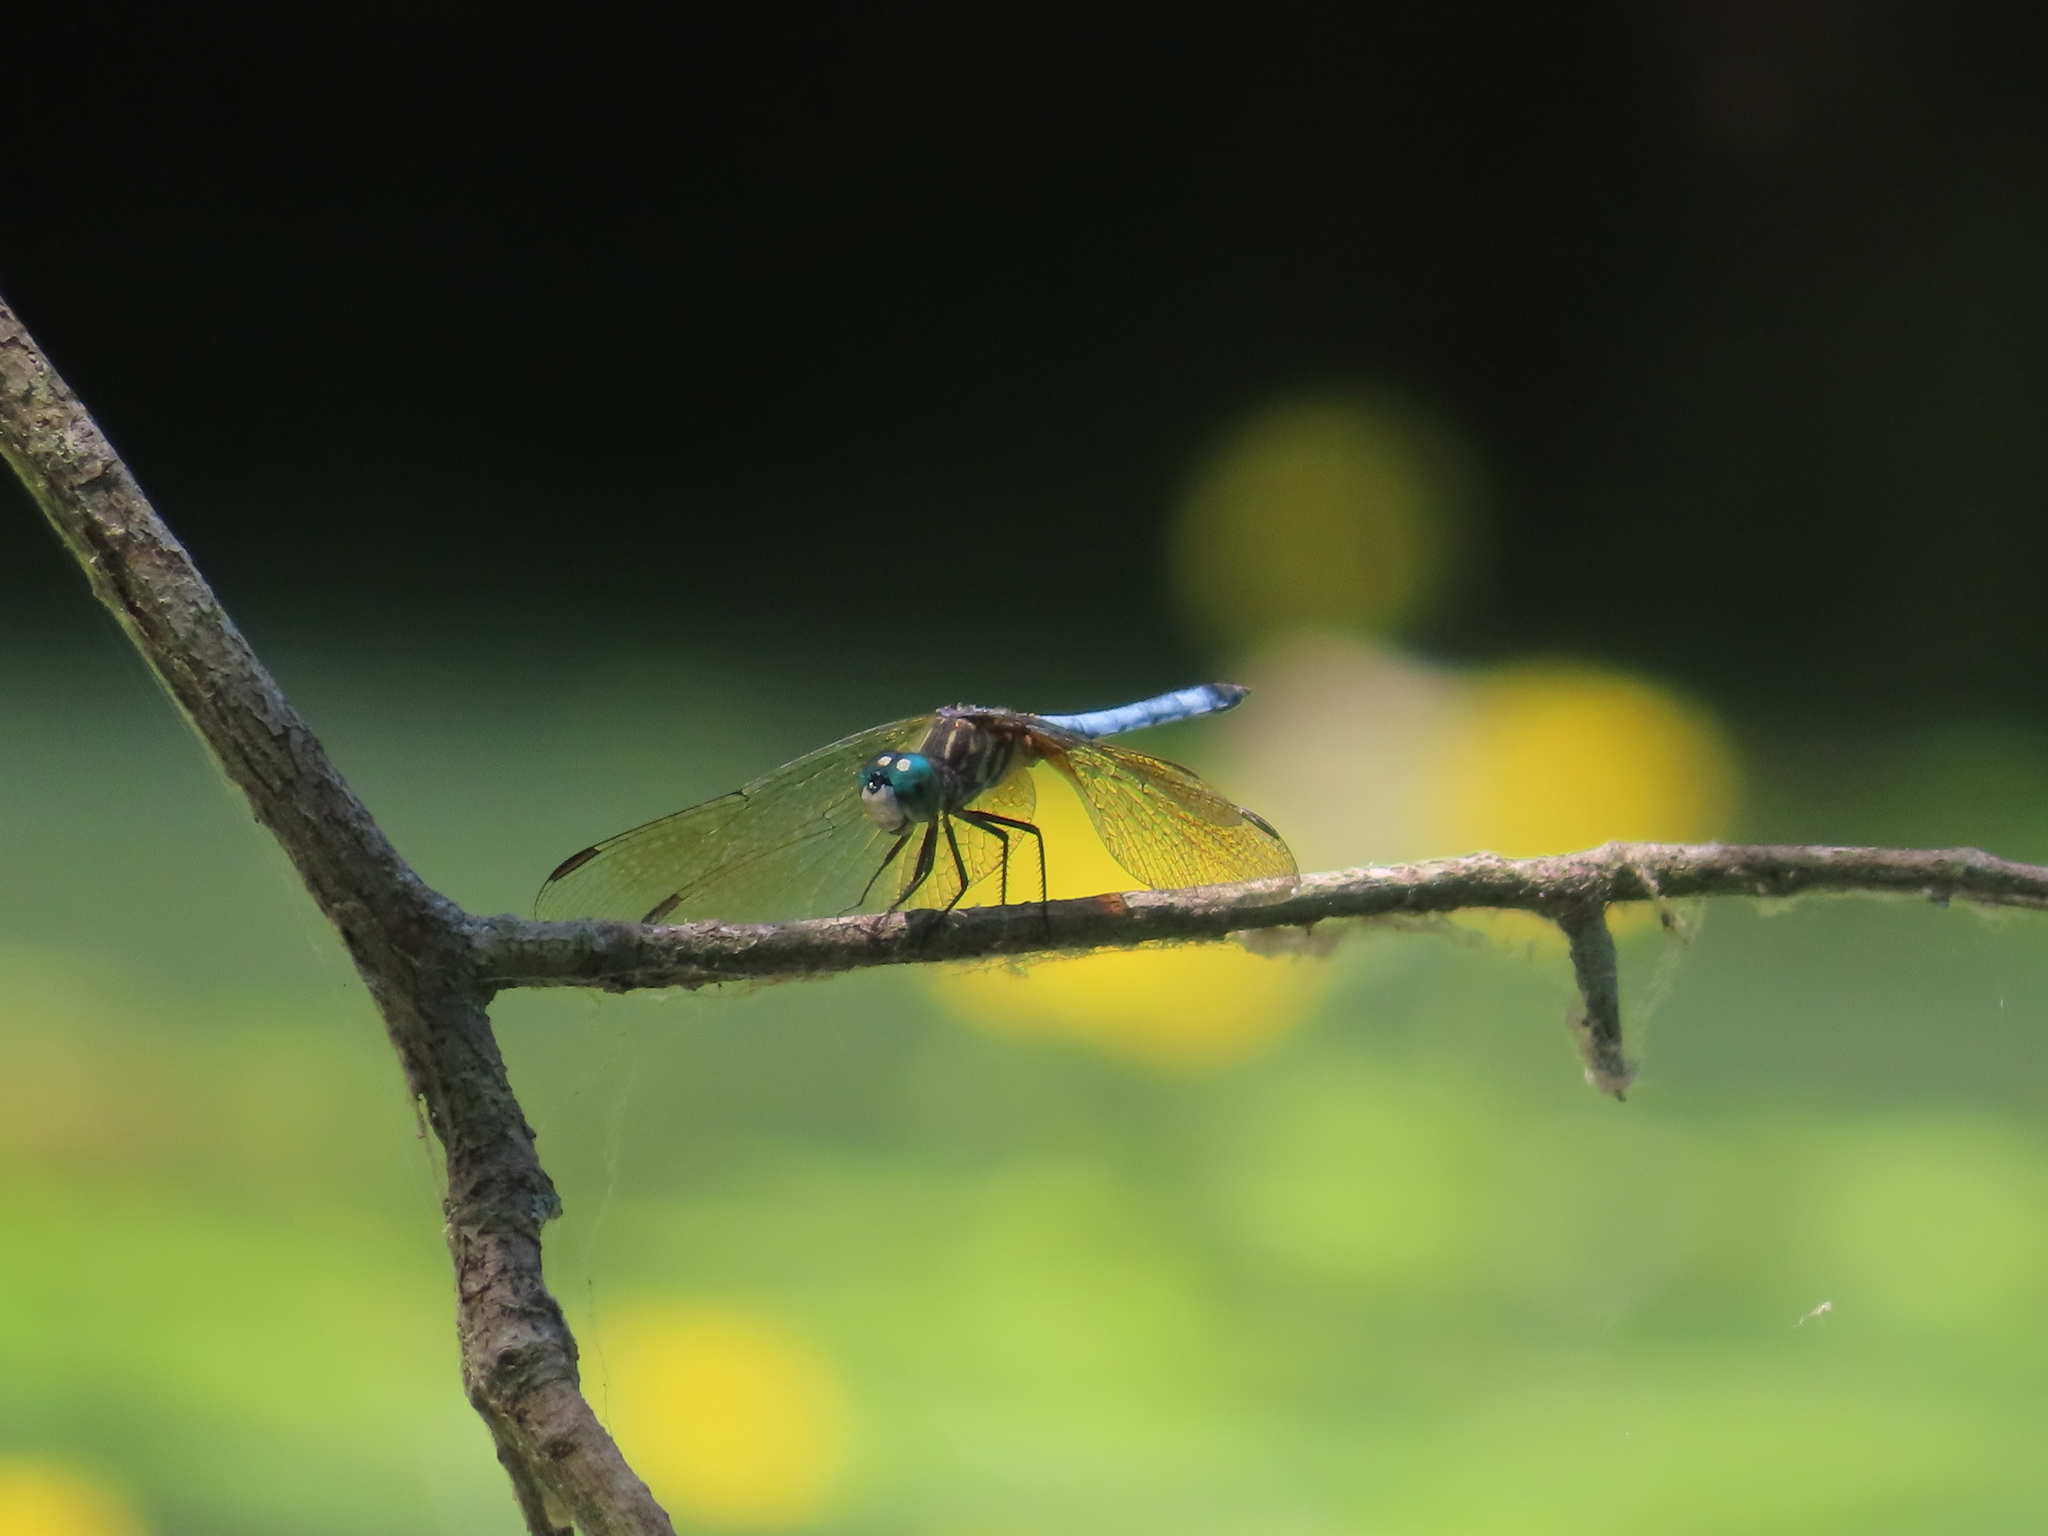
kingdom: Animalia
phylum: Arthropoda
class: Insecta
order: Odonata
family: Libellulidae
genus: Pachydiplax
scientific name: Pachydiplax longipennis
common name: Blue dasher
